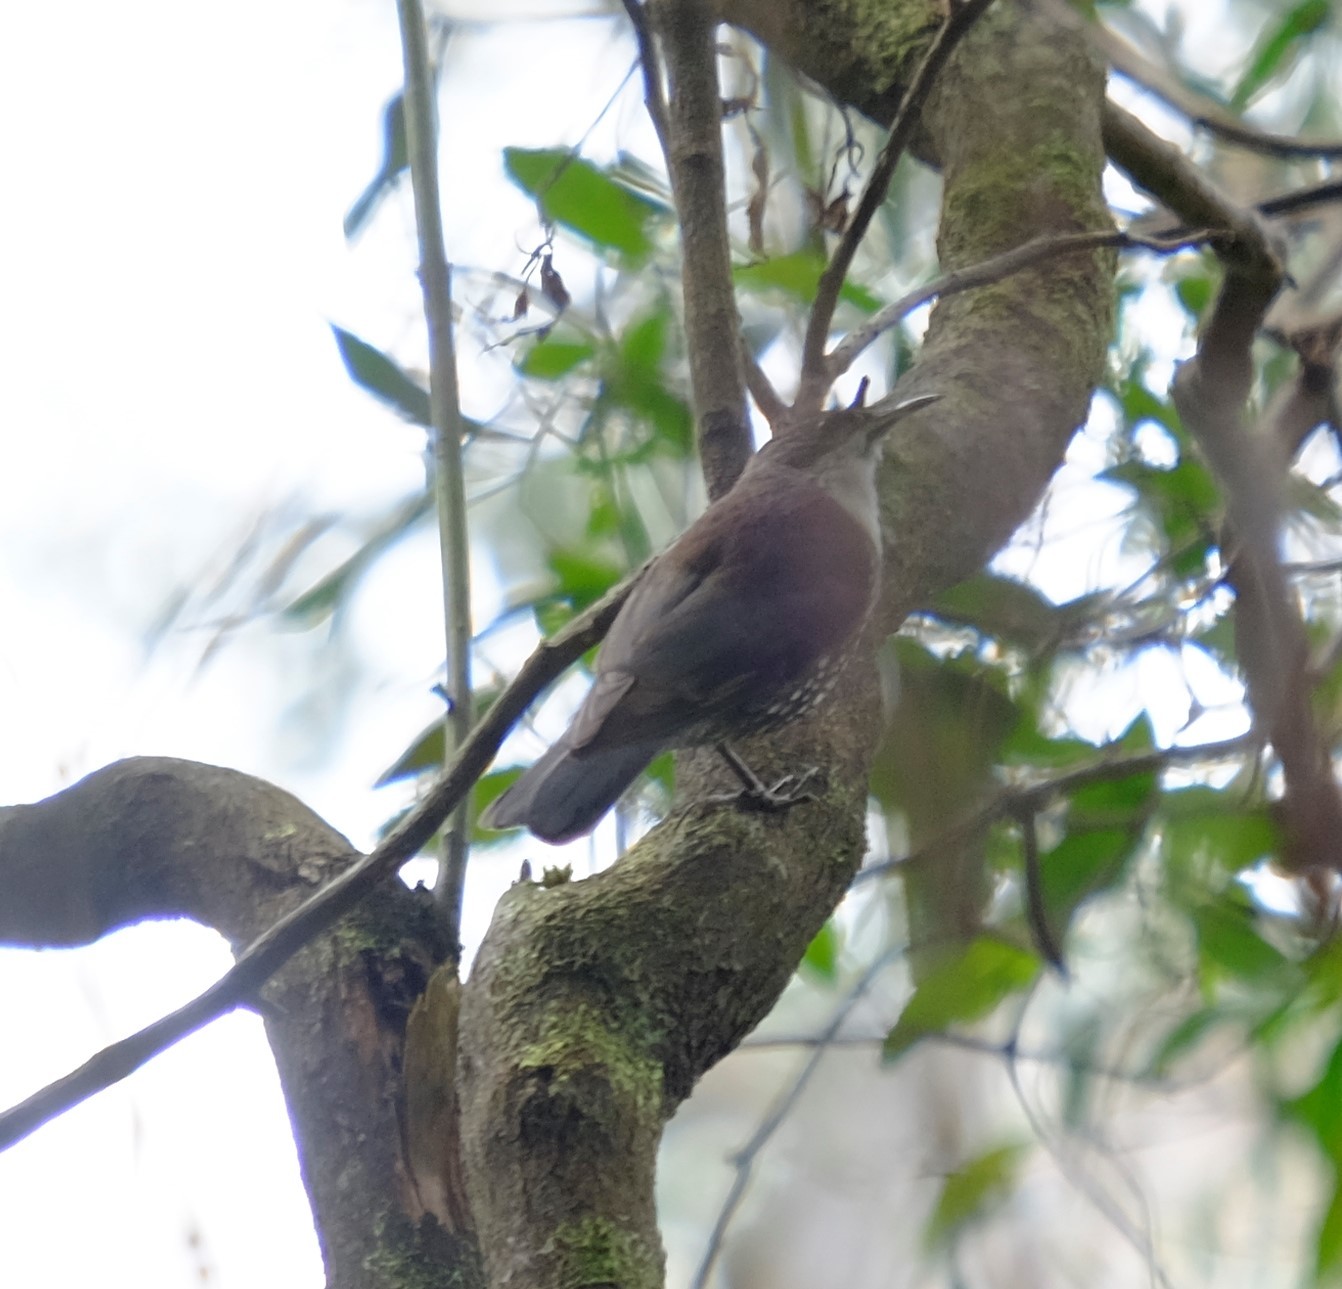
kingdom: Animalia
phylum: Chordata
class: Aves
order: Passeriformes
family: Climacteridae
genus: Cormobates
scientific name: Cormobates leucophaea
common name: White-throated treecreeper
